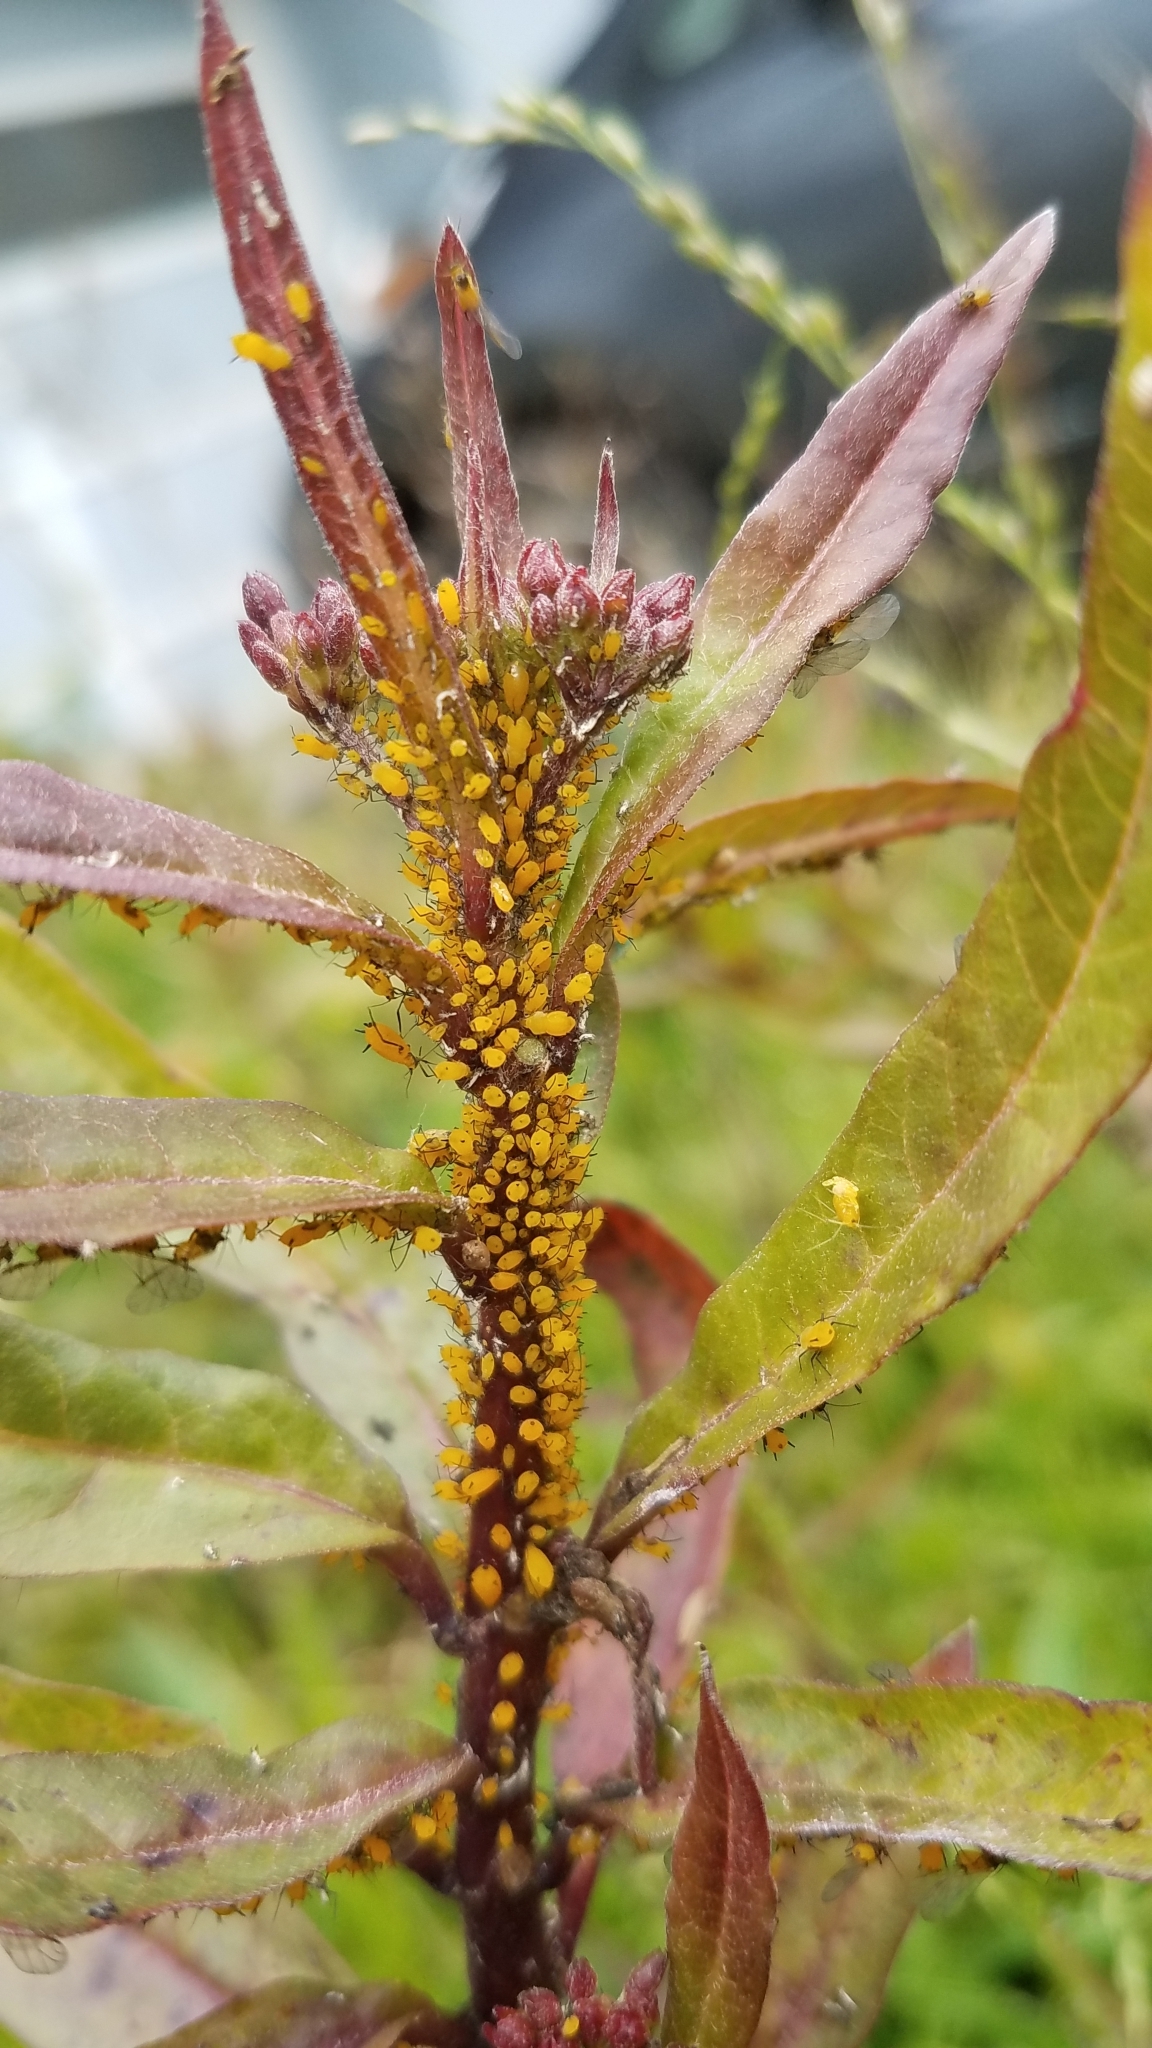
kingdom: Animalia
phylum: Arthropoda
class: Insecta
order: Hemiptera
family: Aphididae
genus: Aphis
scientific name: Aphis nerii
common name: Oleander aphid
